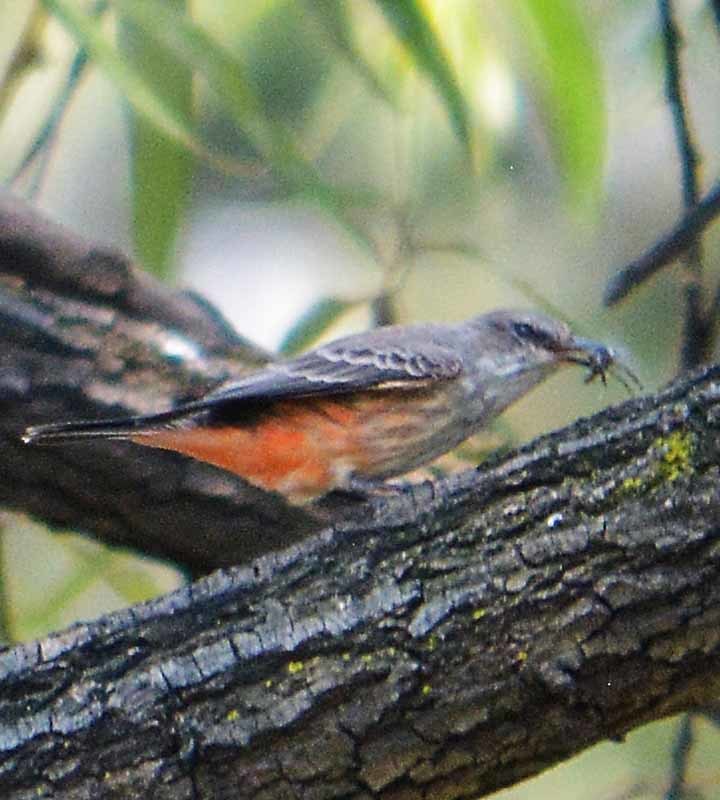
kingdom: Animalia
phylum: Chordata
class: Aves
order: Passeriformes
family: Tyrannidae
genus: Pyrocephalus
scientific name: Pyrocephalus rubinus
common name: Vermilion flycatcher
